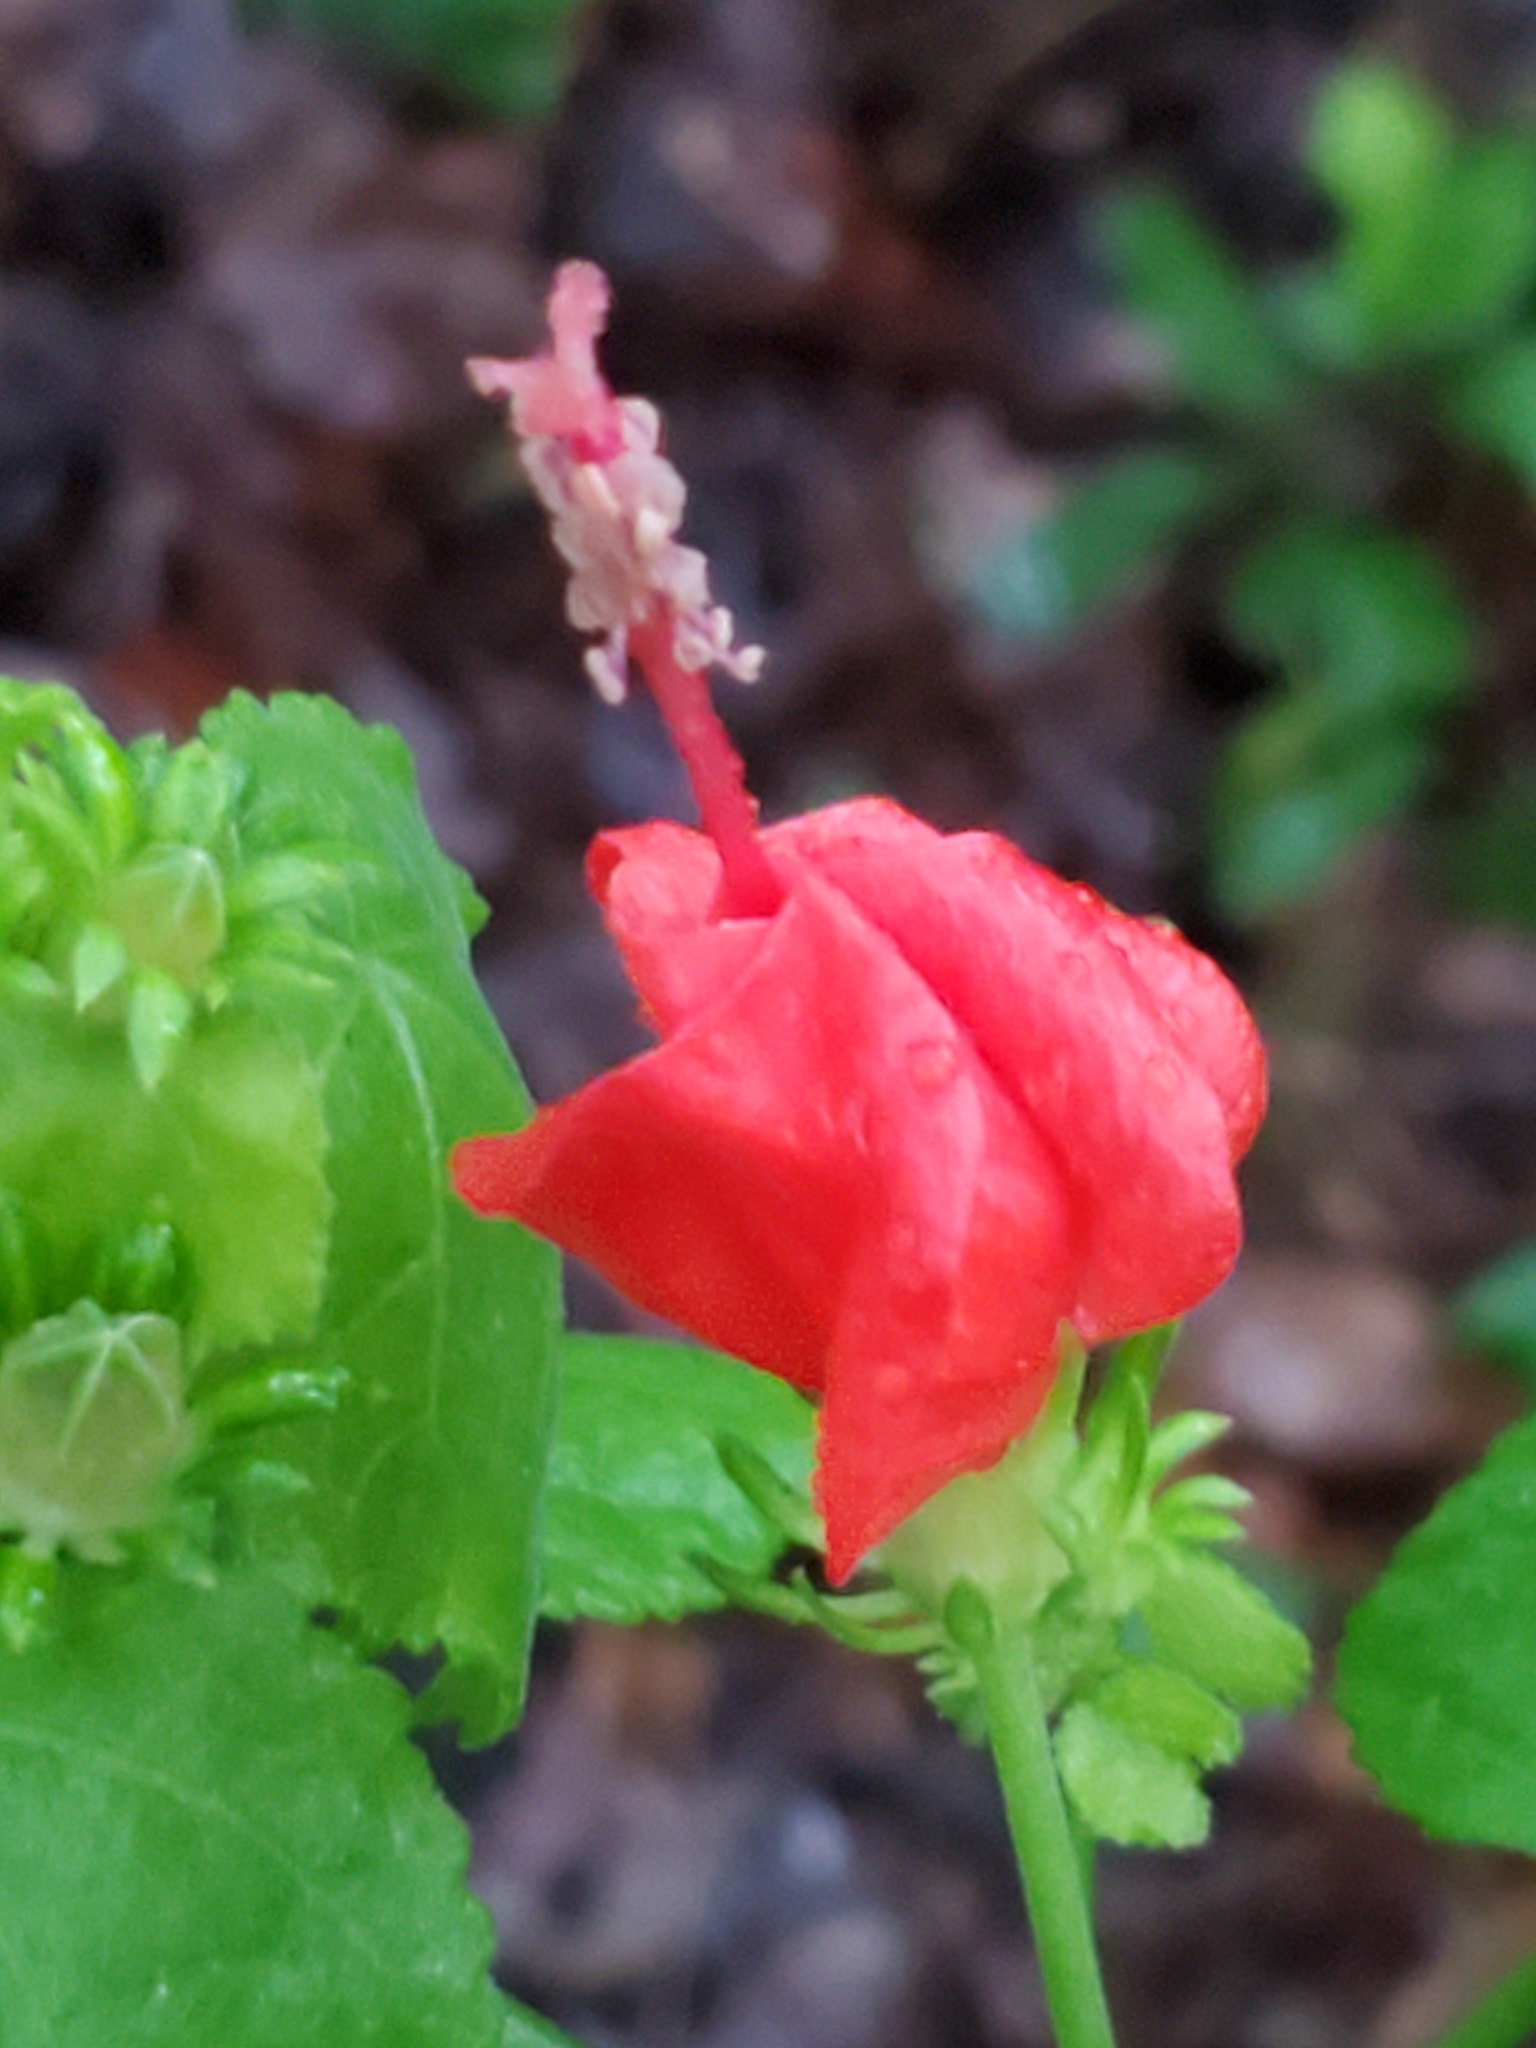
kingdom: Plantae
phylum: Tracheophyta
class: Magnoliopsida
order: Malvales
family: Malvaceae
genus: Malvaviscus
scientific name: Malvaviscus arboreus
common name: Wax mallow
